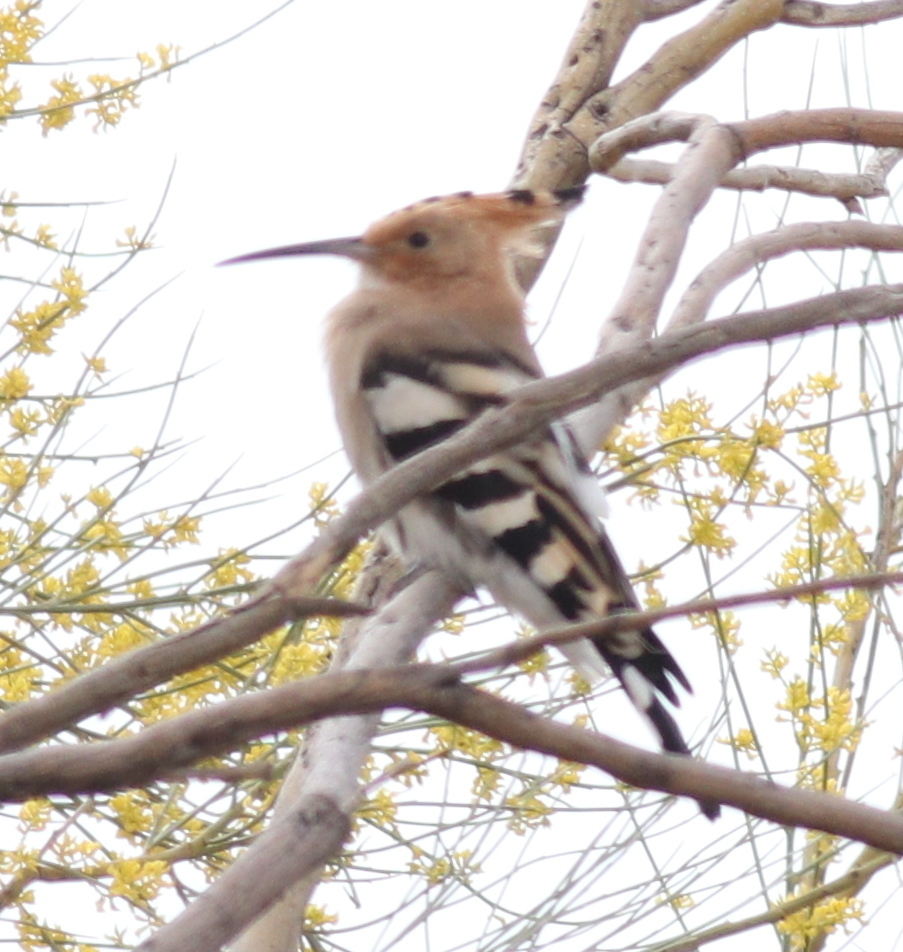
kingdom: Animalia
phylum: Chordata
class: Aves
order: Bucerotiformes
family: Upupidae
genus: Upupa
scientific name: Upupa epops
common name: Eurasian hoopoe
